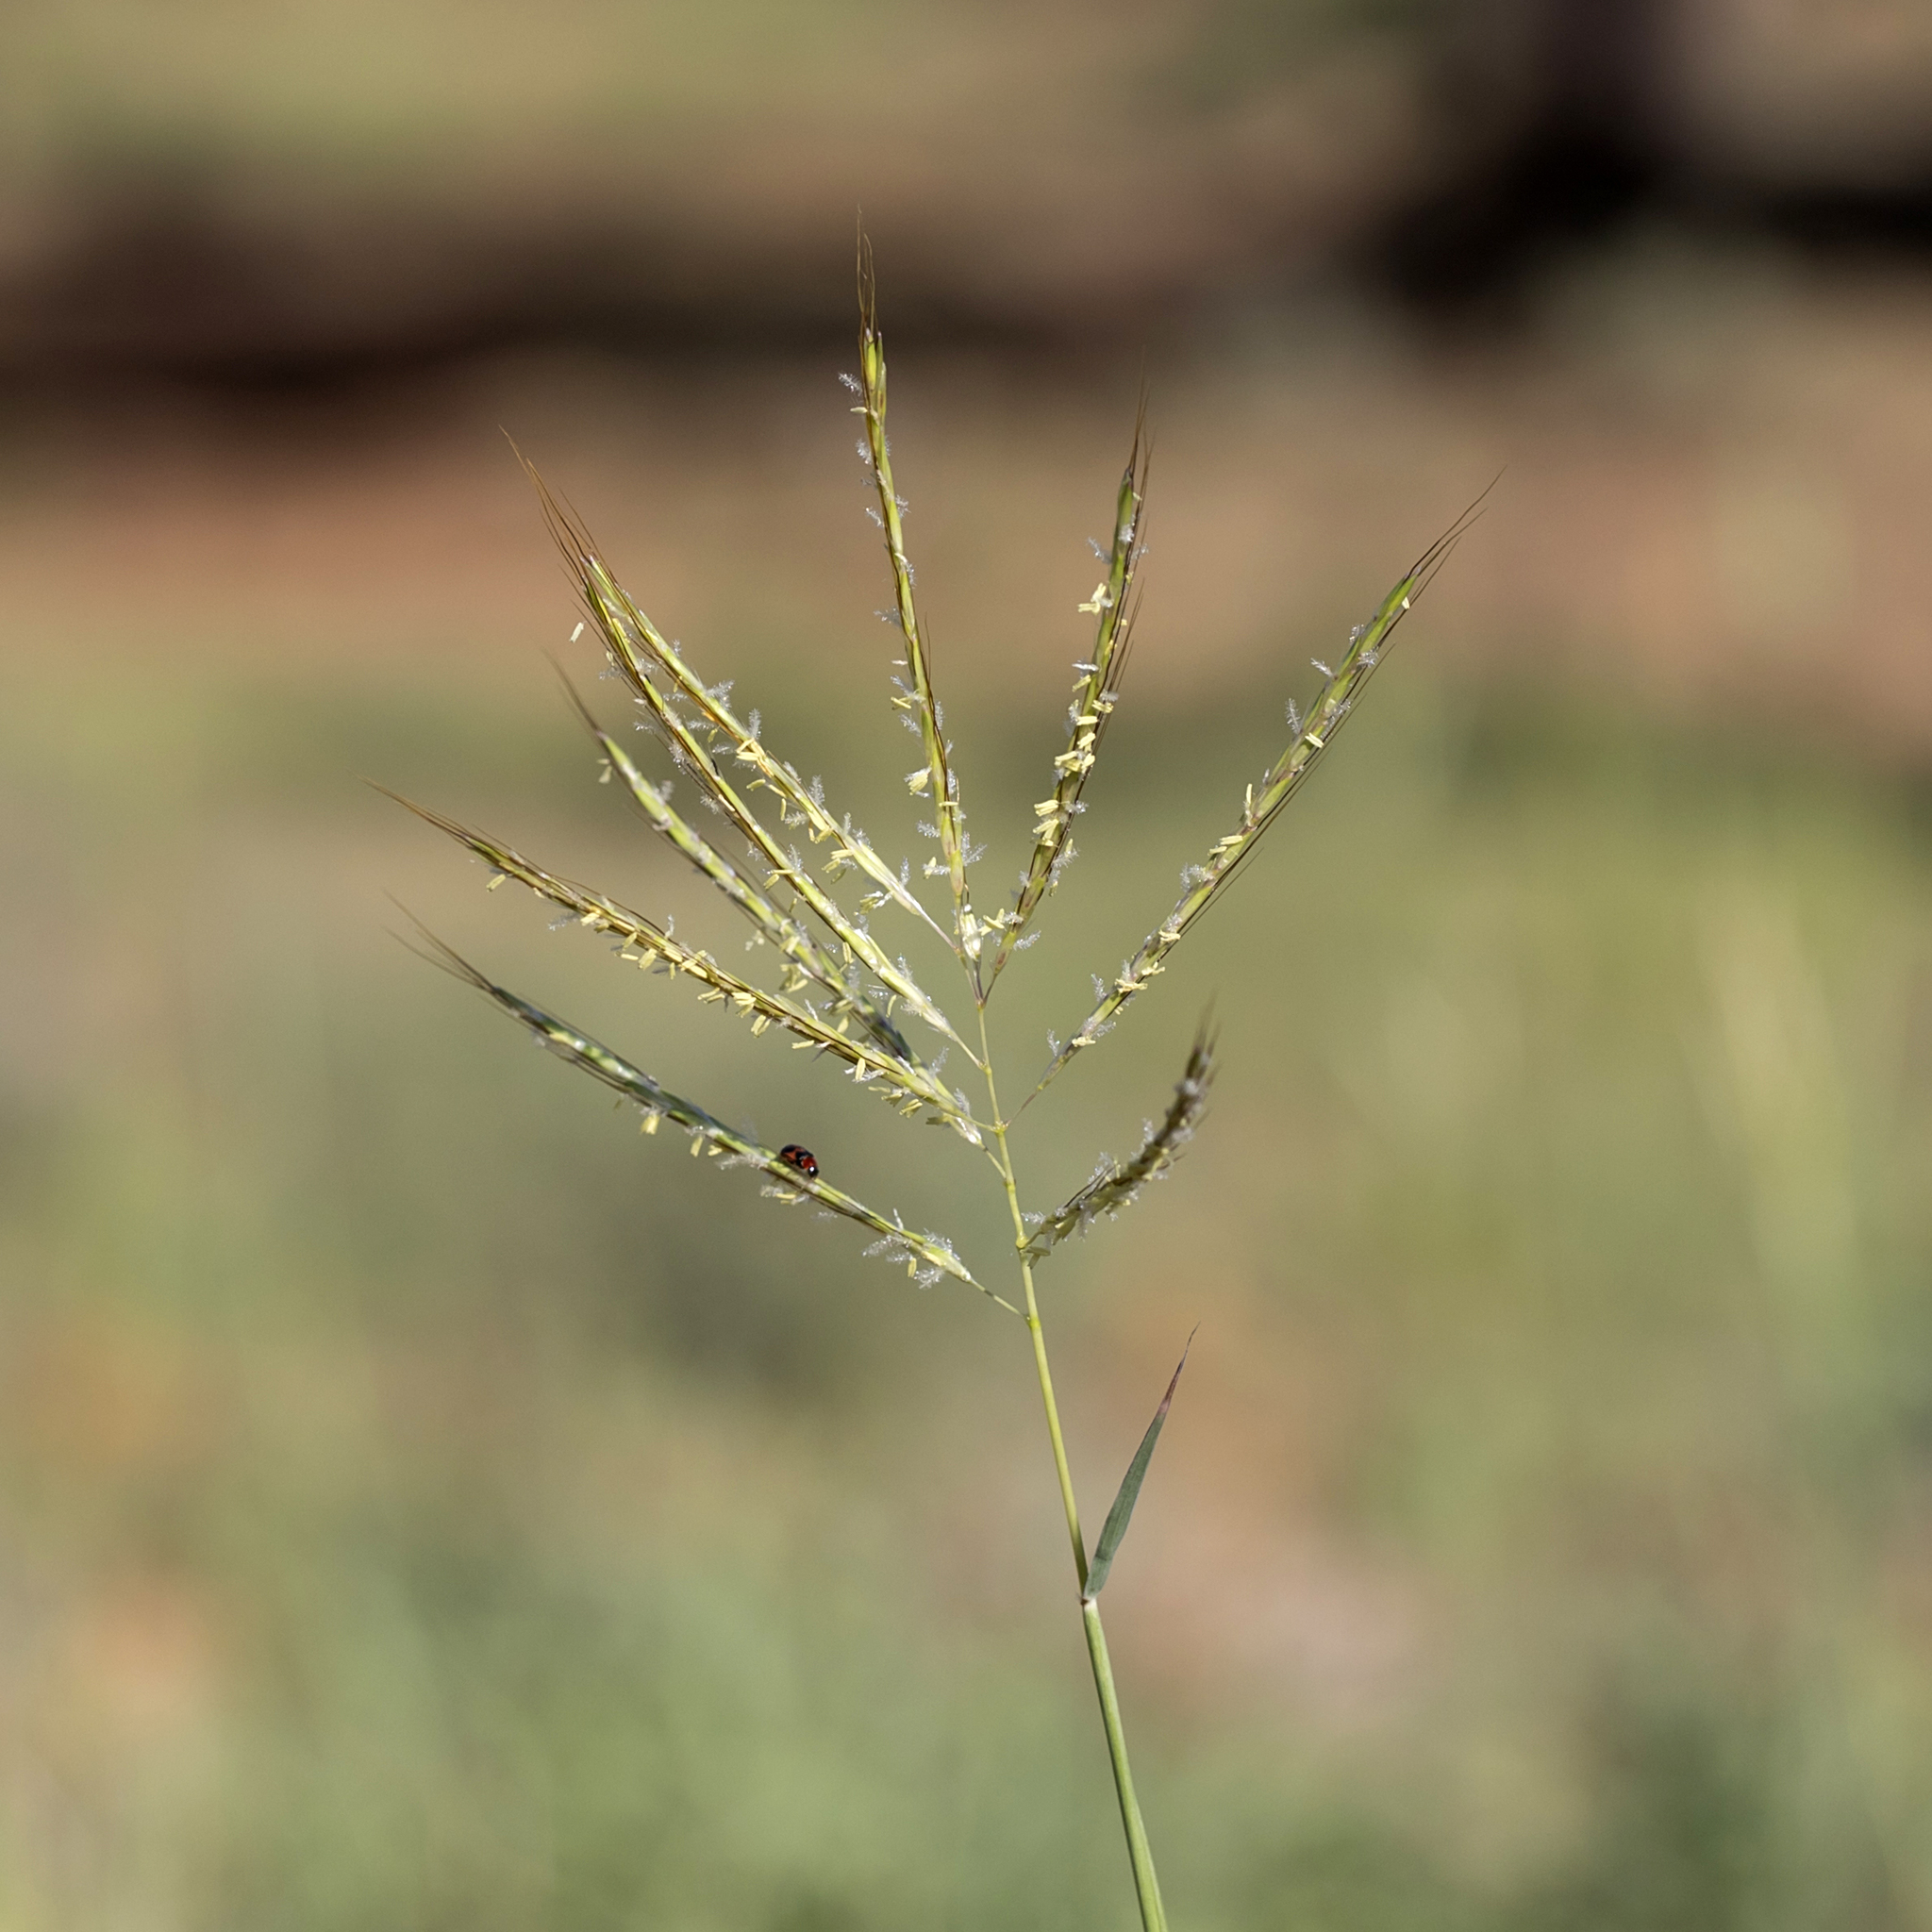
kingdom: Plantae
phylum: Tracheophyta
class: Liliopsida
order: Poales
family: Poaceae
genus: Bothriochloa
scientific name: Bothriochloa ewartiana
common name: Desert-bluegrass
